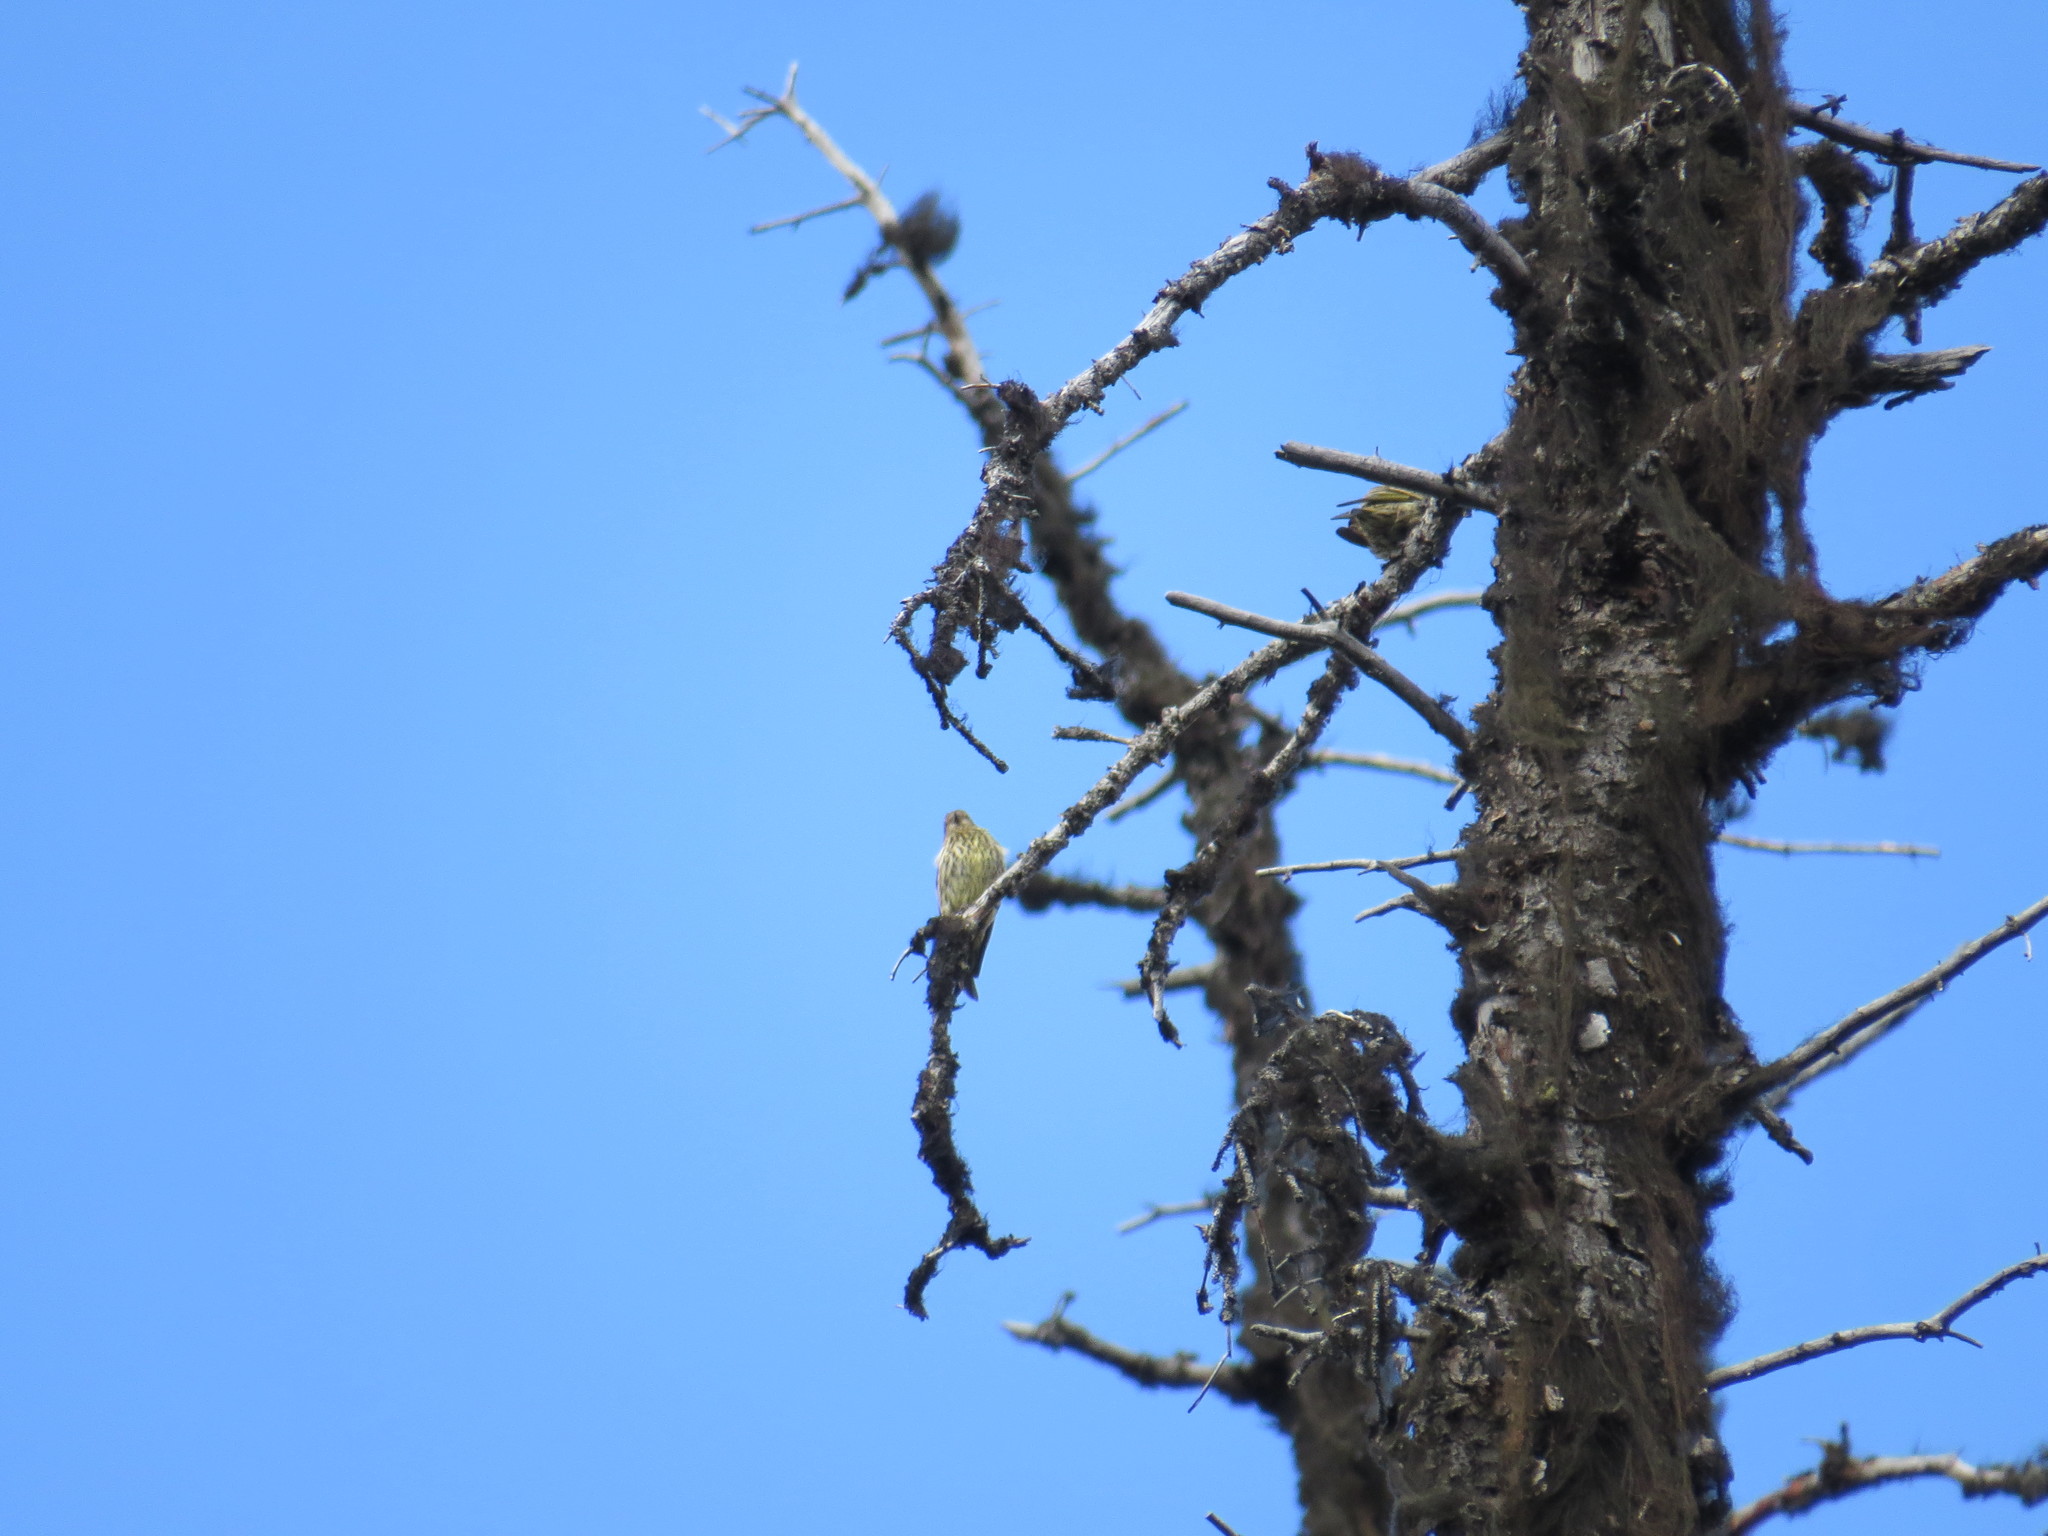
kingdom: Animalia
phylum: Chordata
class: Aves
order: Passeriformes
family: Fringillidae
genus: Spinus
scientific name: Spinus pinus
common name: Pine siskin
